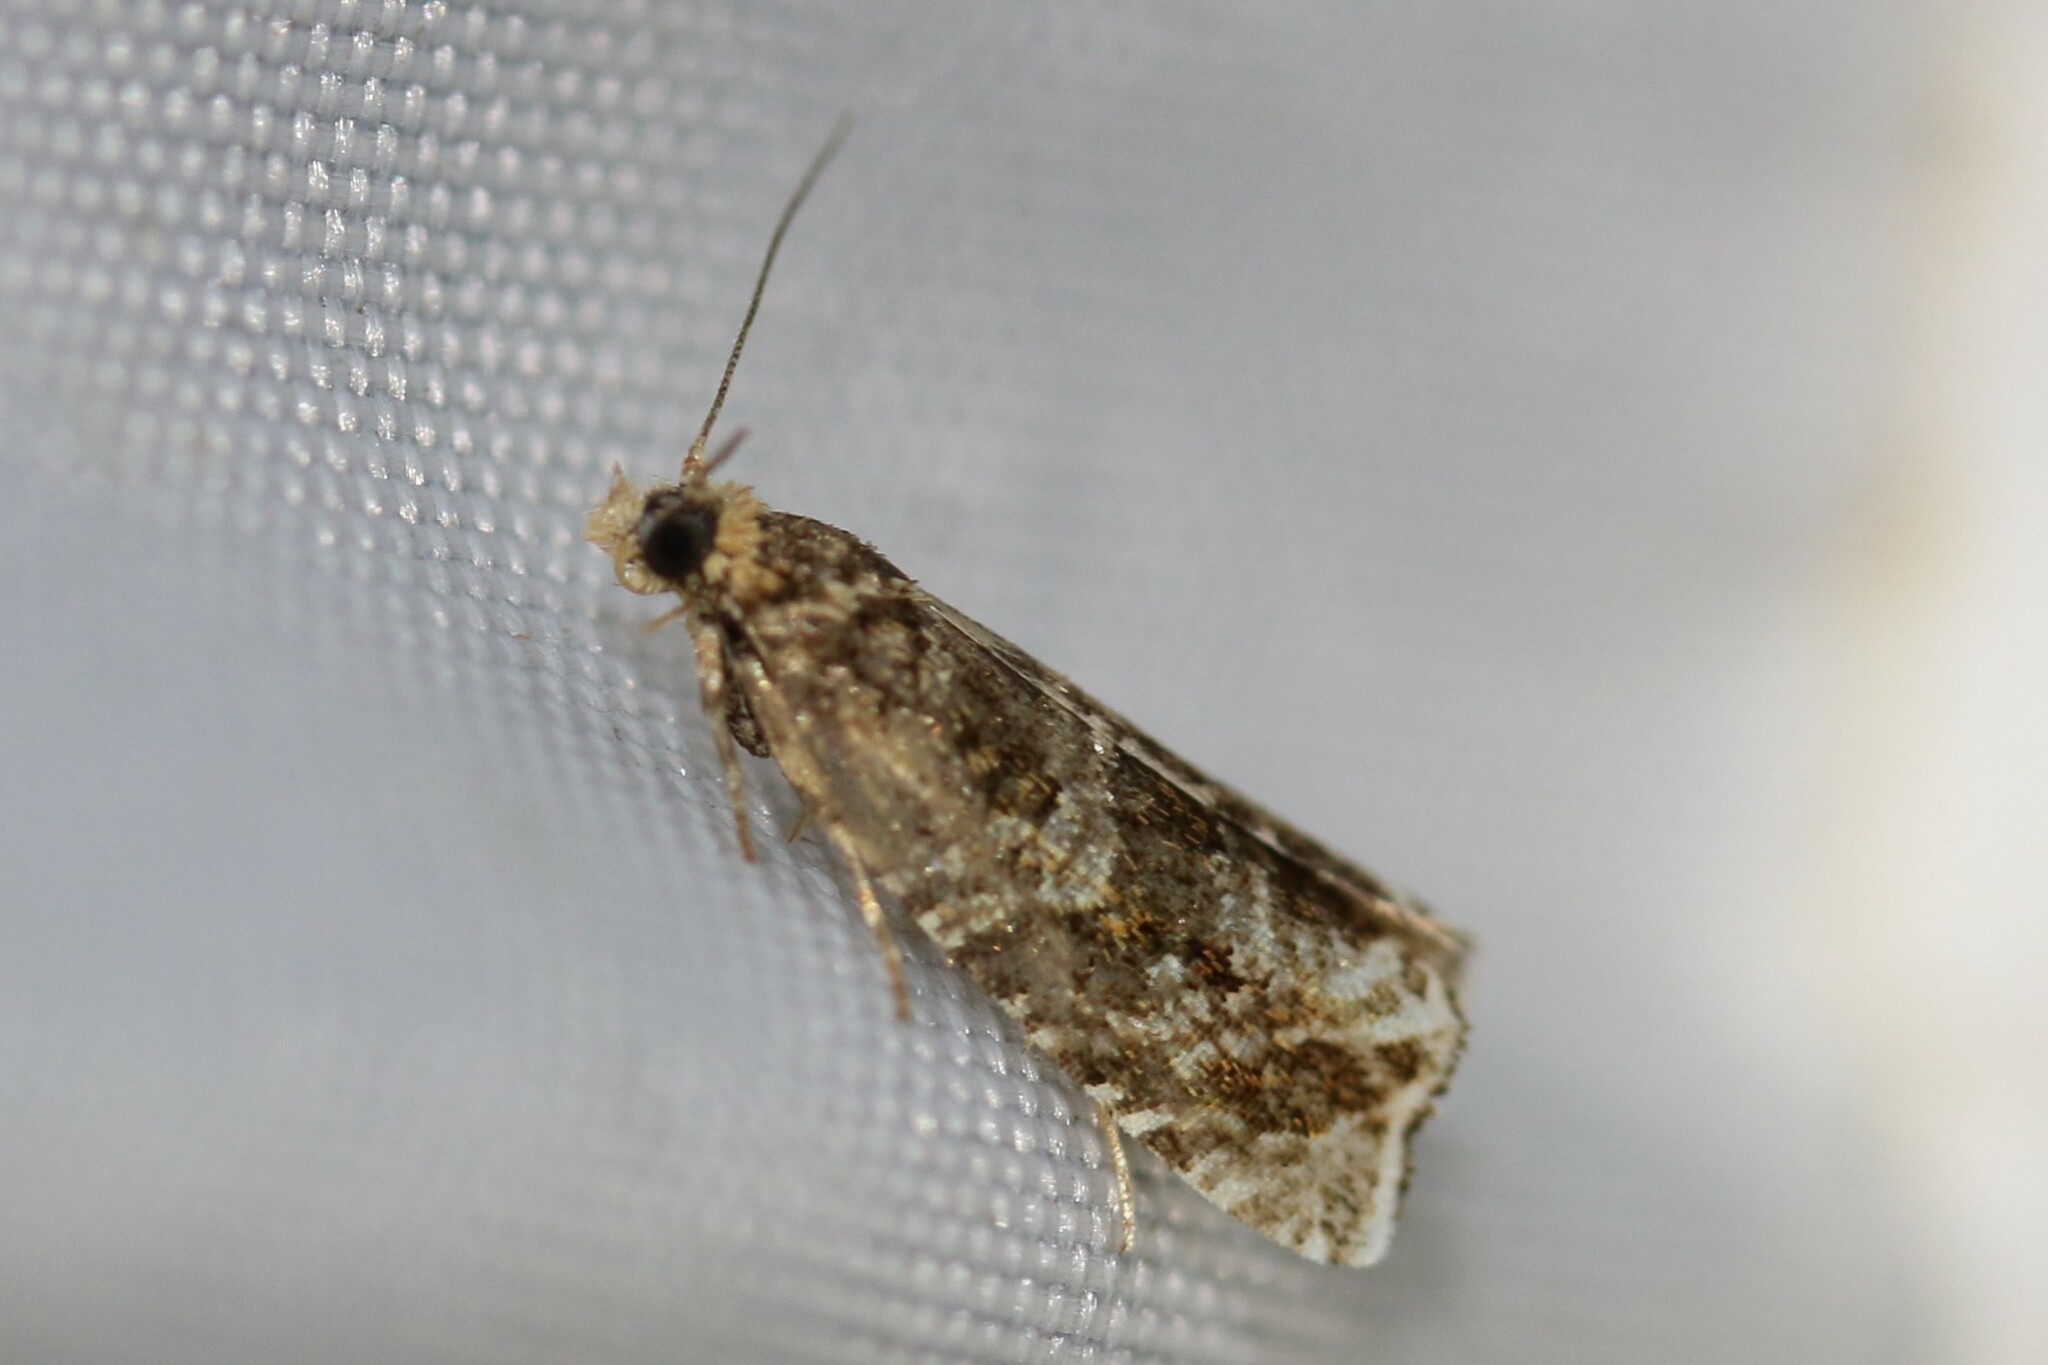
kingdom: Animalia
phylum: Arthropoda
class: Insecta
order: Lepidoptera
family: Tortricidae
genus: Syricoris
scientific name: Syricoris rivulana
